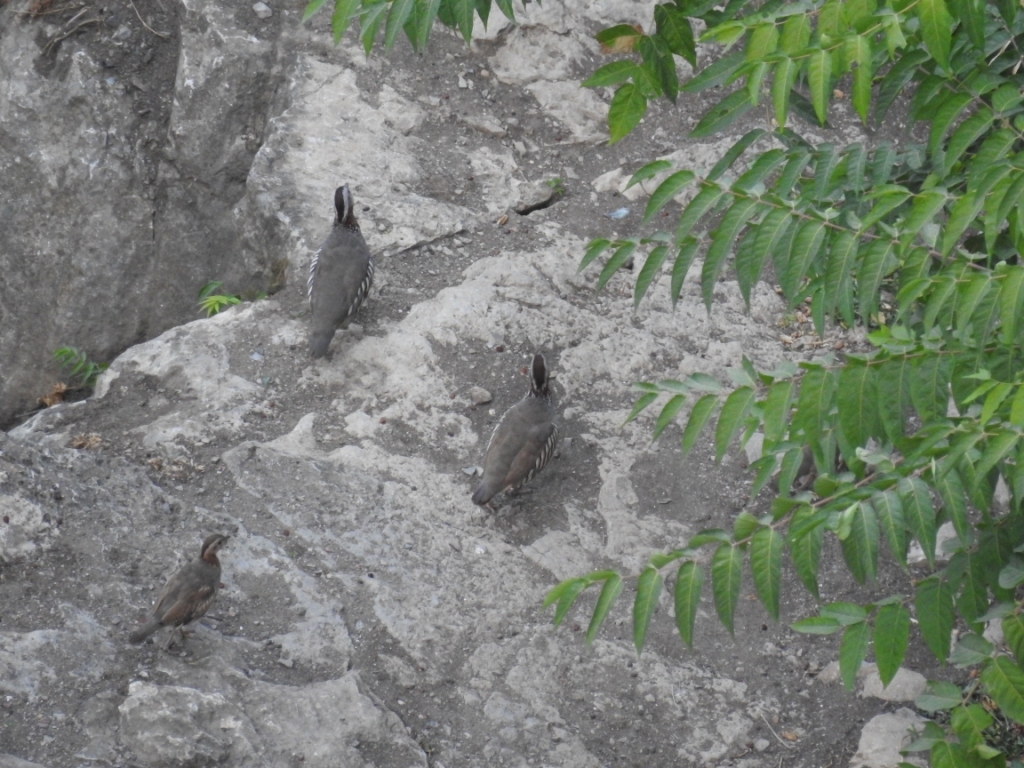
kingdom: Animalia
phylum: Chordata
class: Aves
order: Galliformes
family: Phasianidae
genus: Alectoris
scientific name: Alectoris barbara
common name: Barbary partridge
